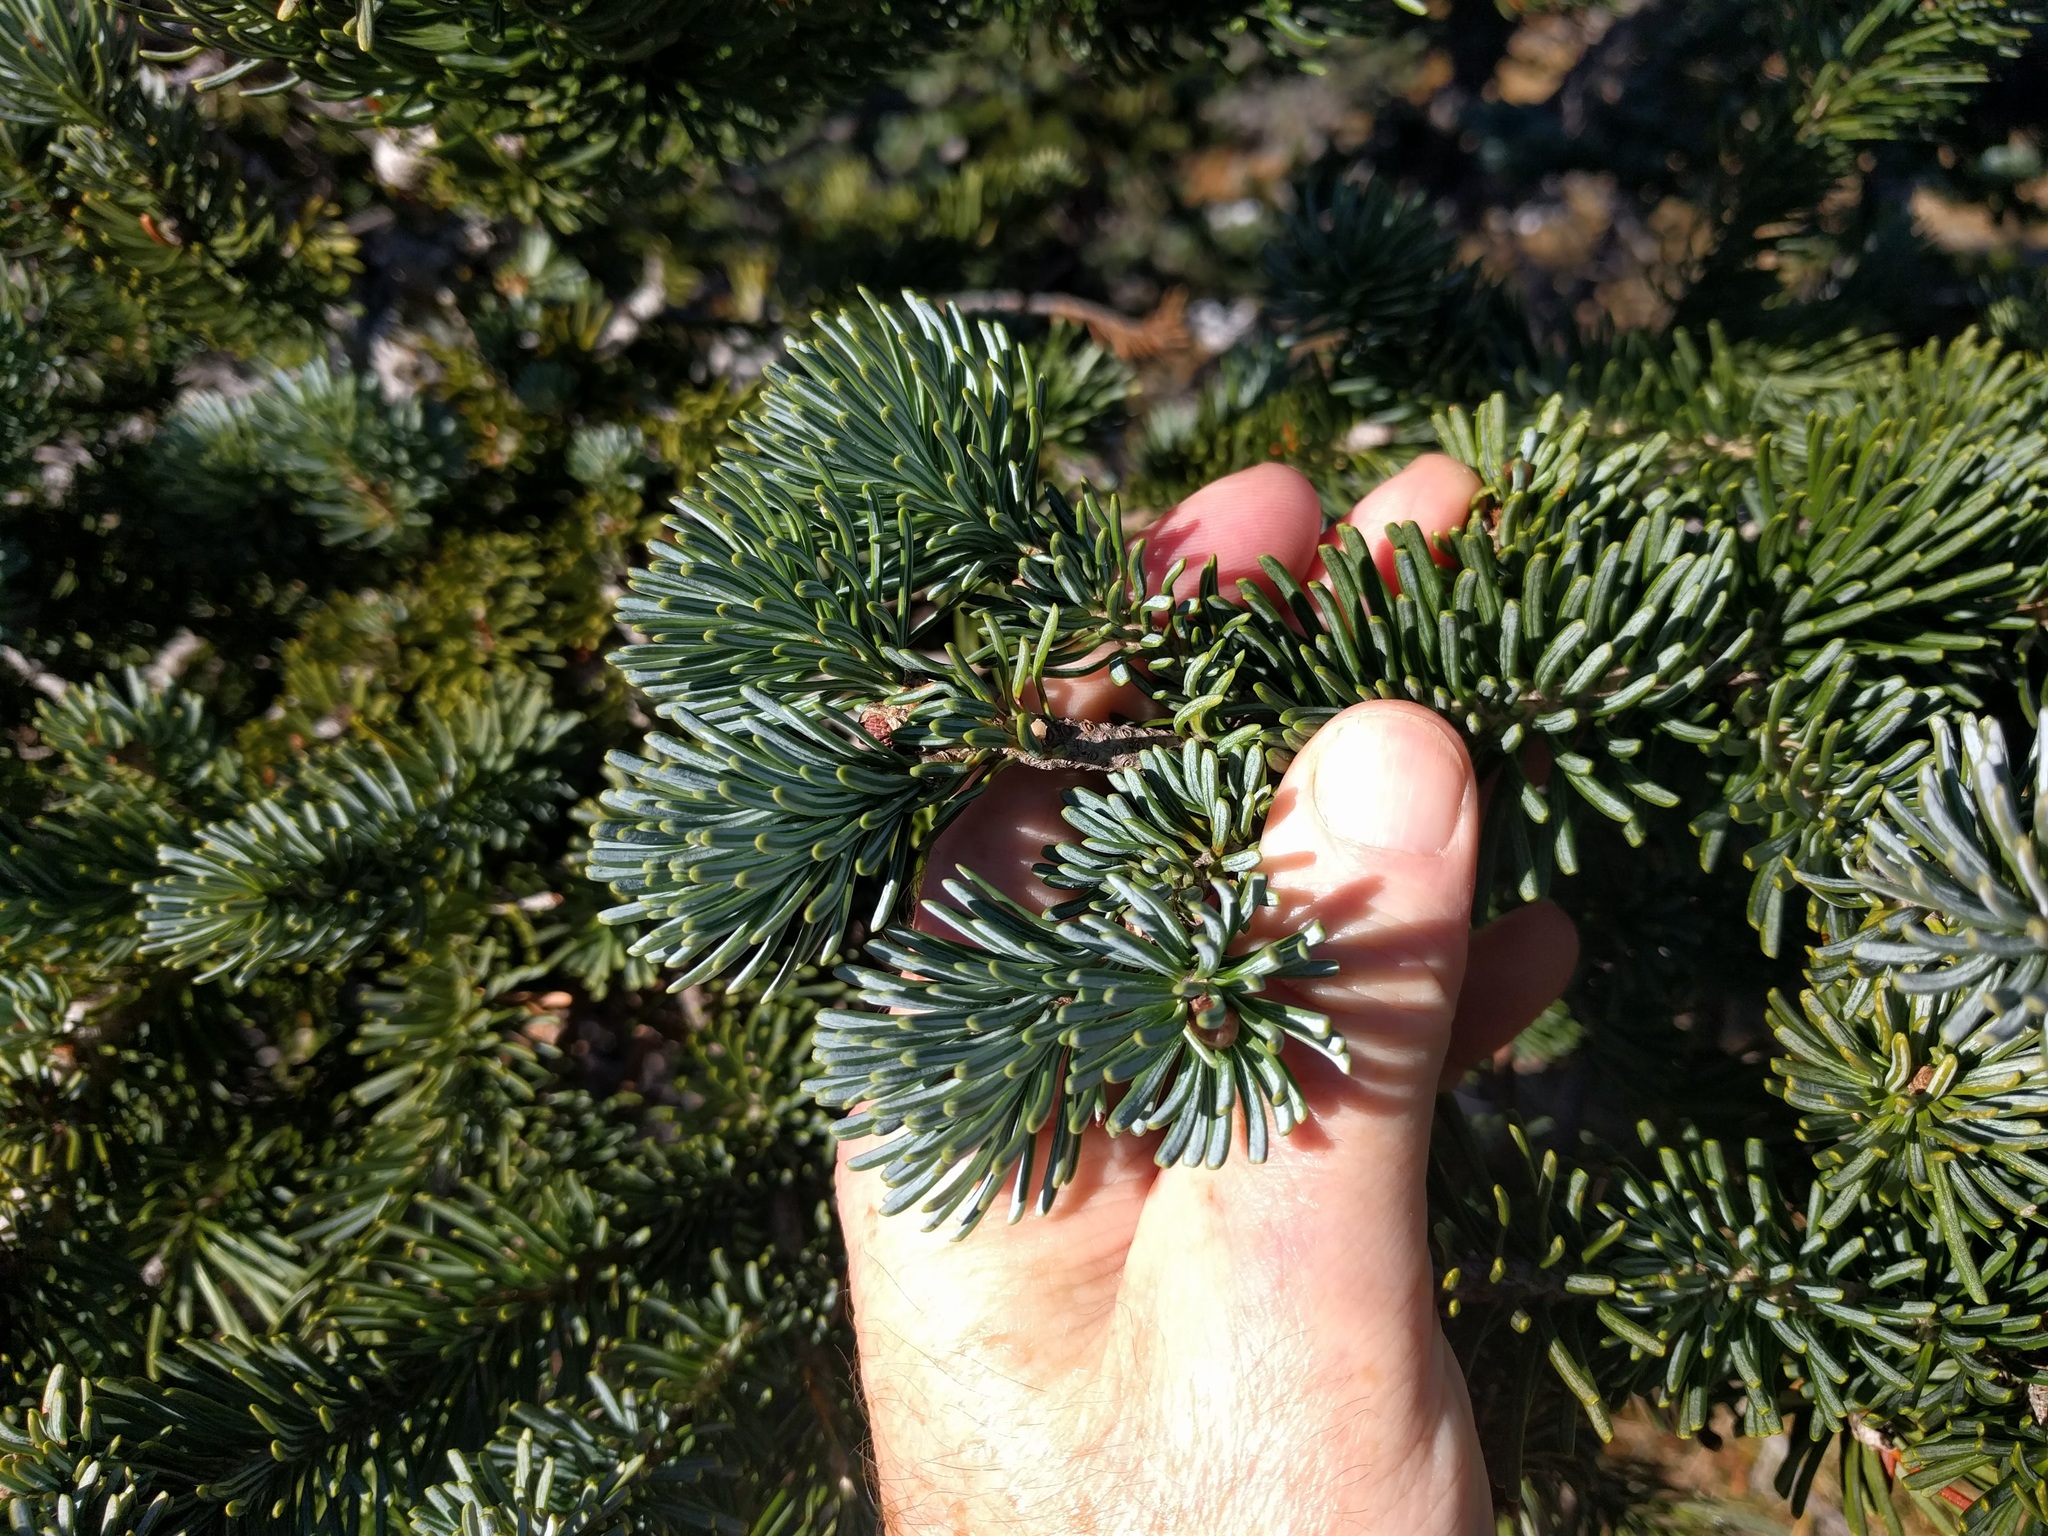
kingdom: Plantae
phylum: Tracheophyta
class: Pinopsida
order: Pinales
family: Pinaceae
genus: Abies
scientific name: Abies lasiocarpa
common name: Subalpine fir
